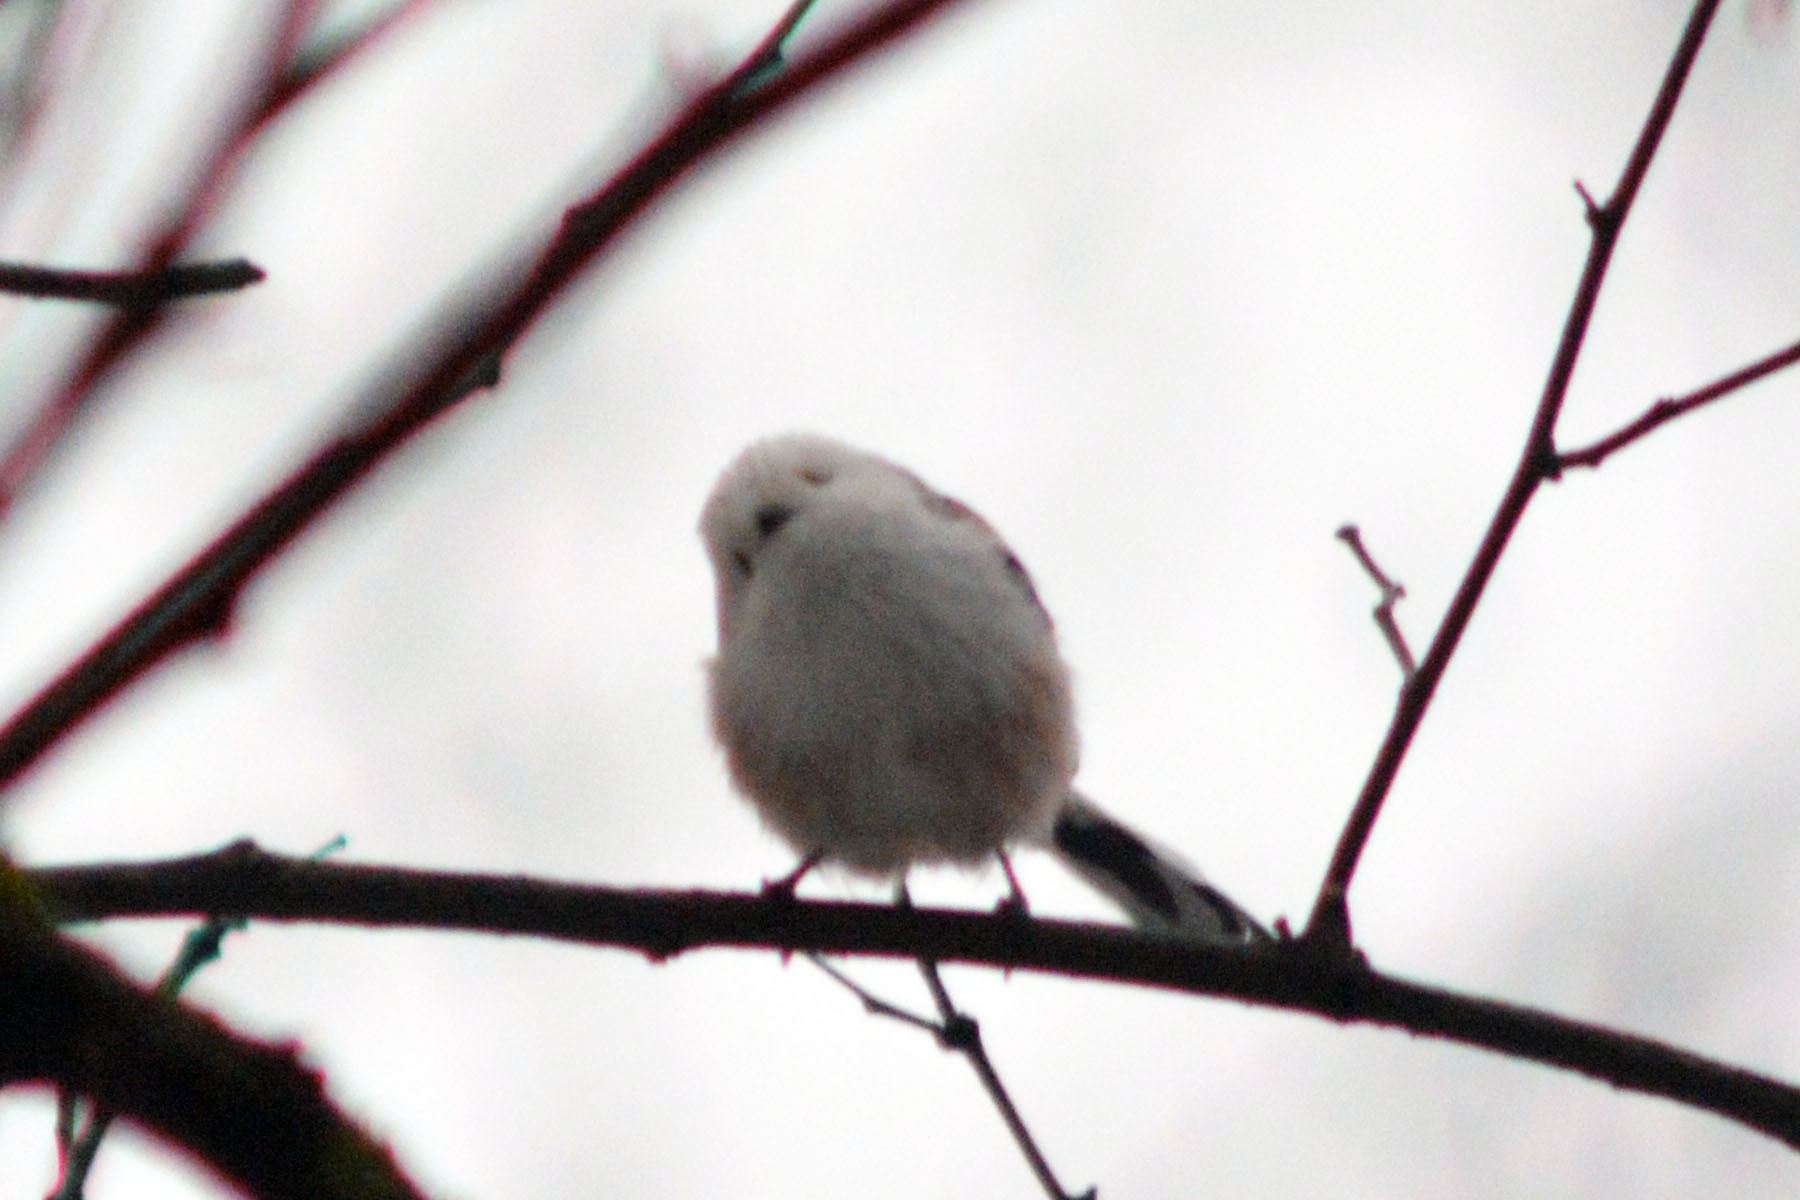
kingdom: Animalia
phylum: Chordata
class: Aves
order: Passeriformes
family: Aegithalidae
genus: Aegithalos
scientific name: Aegithalos caudatus
